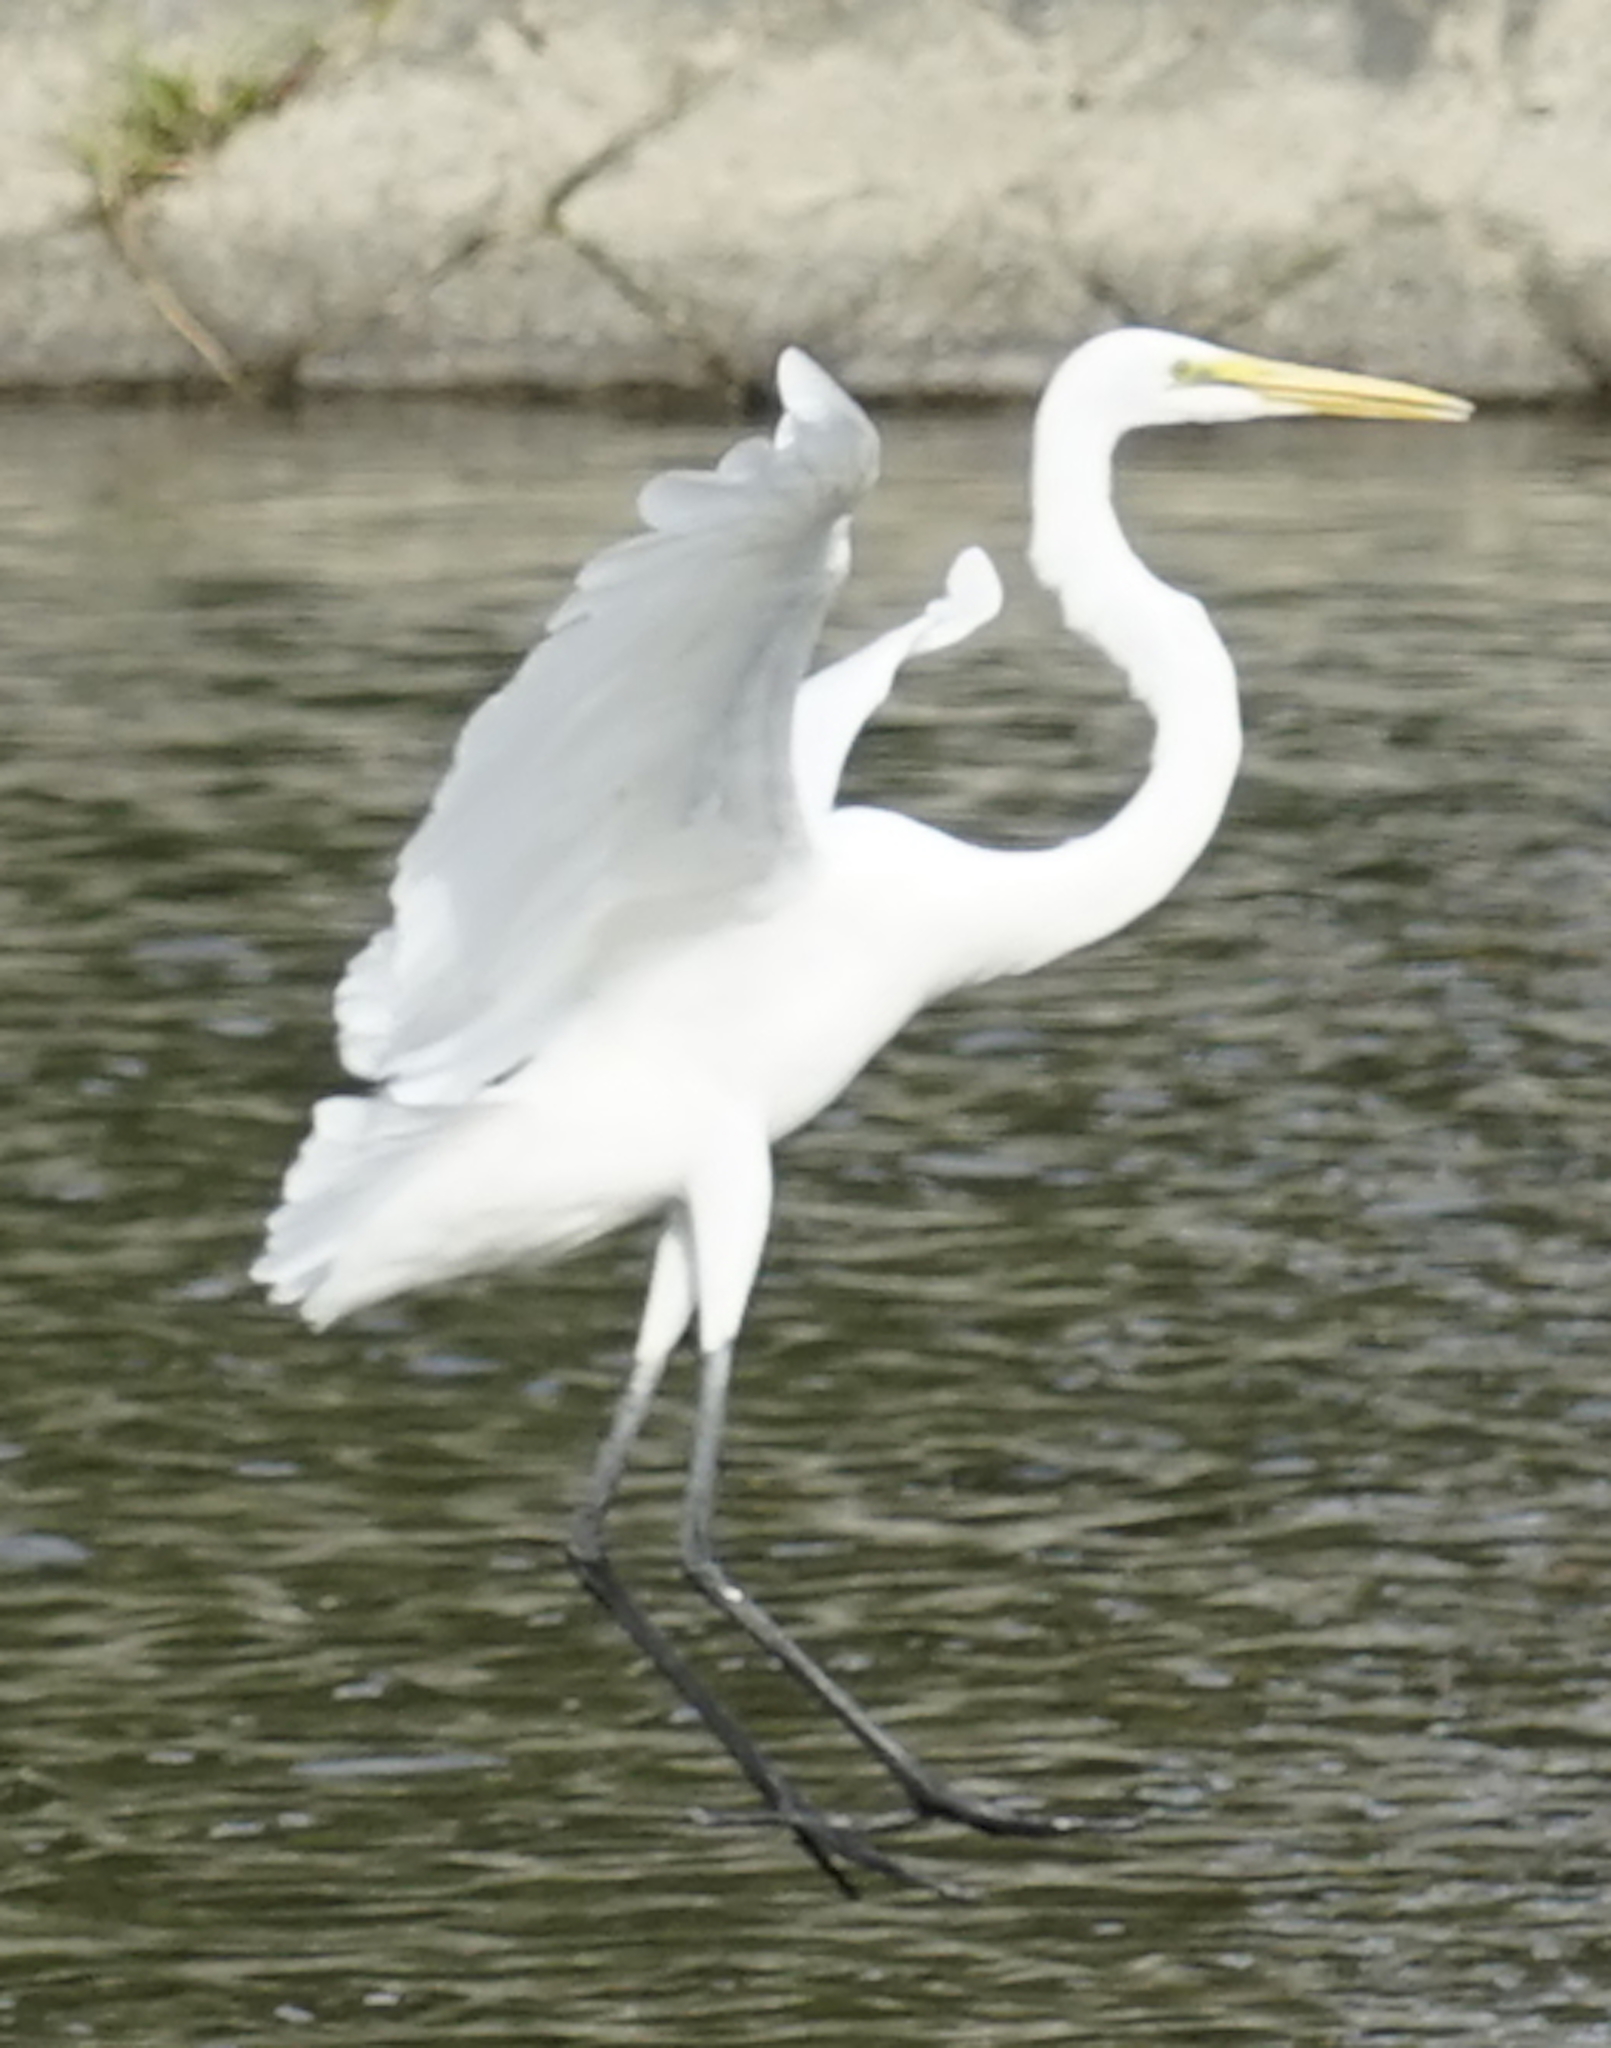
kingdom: Animalia
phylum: Chordata
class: Aves
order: Pelecaniformes
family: Ardeidae
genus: Ardea
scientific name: Ardea alba
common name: Great egret
